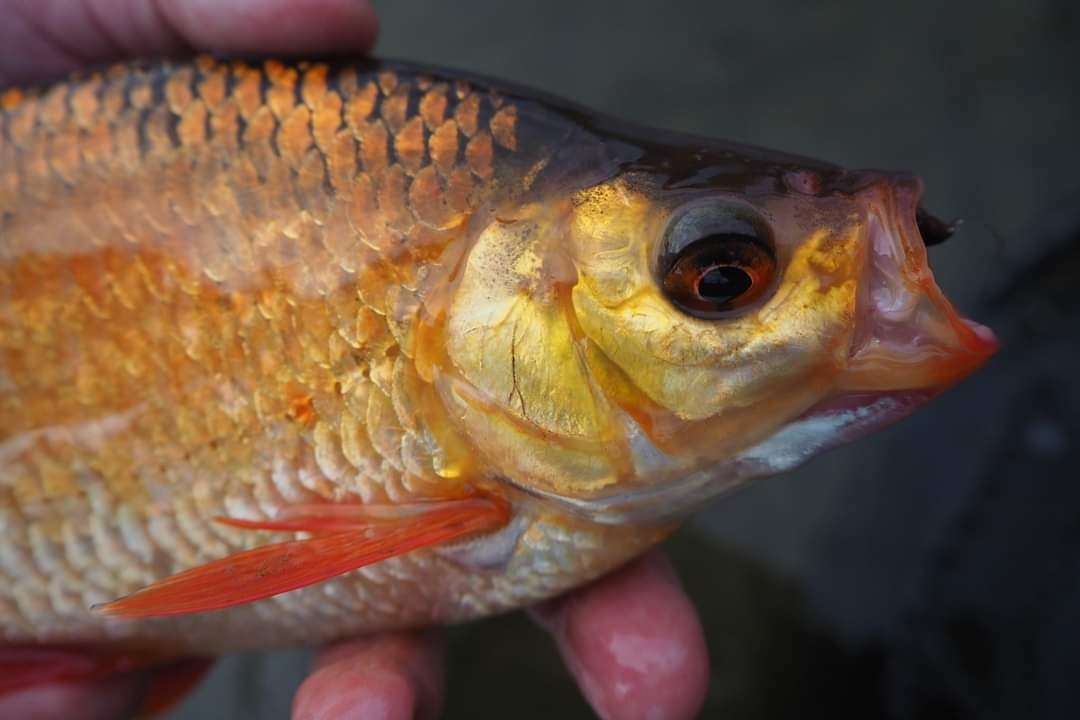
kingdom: Animalia
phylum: Chordata
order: Cypriniformes
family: Cyprinidae
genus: Scardinius
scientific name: Scardinius erythrophthalmus
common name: Rudd
